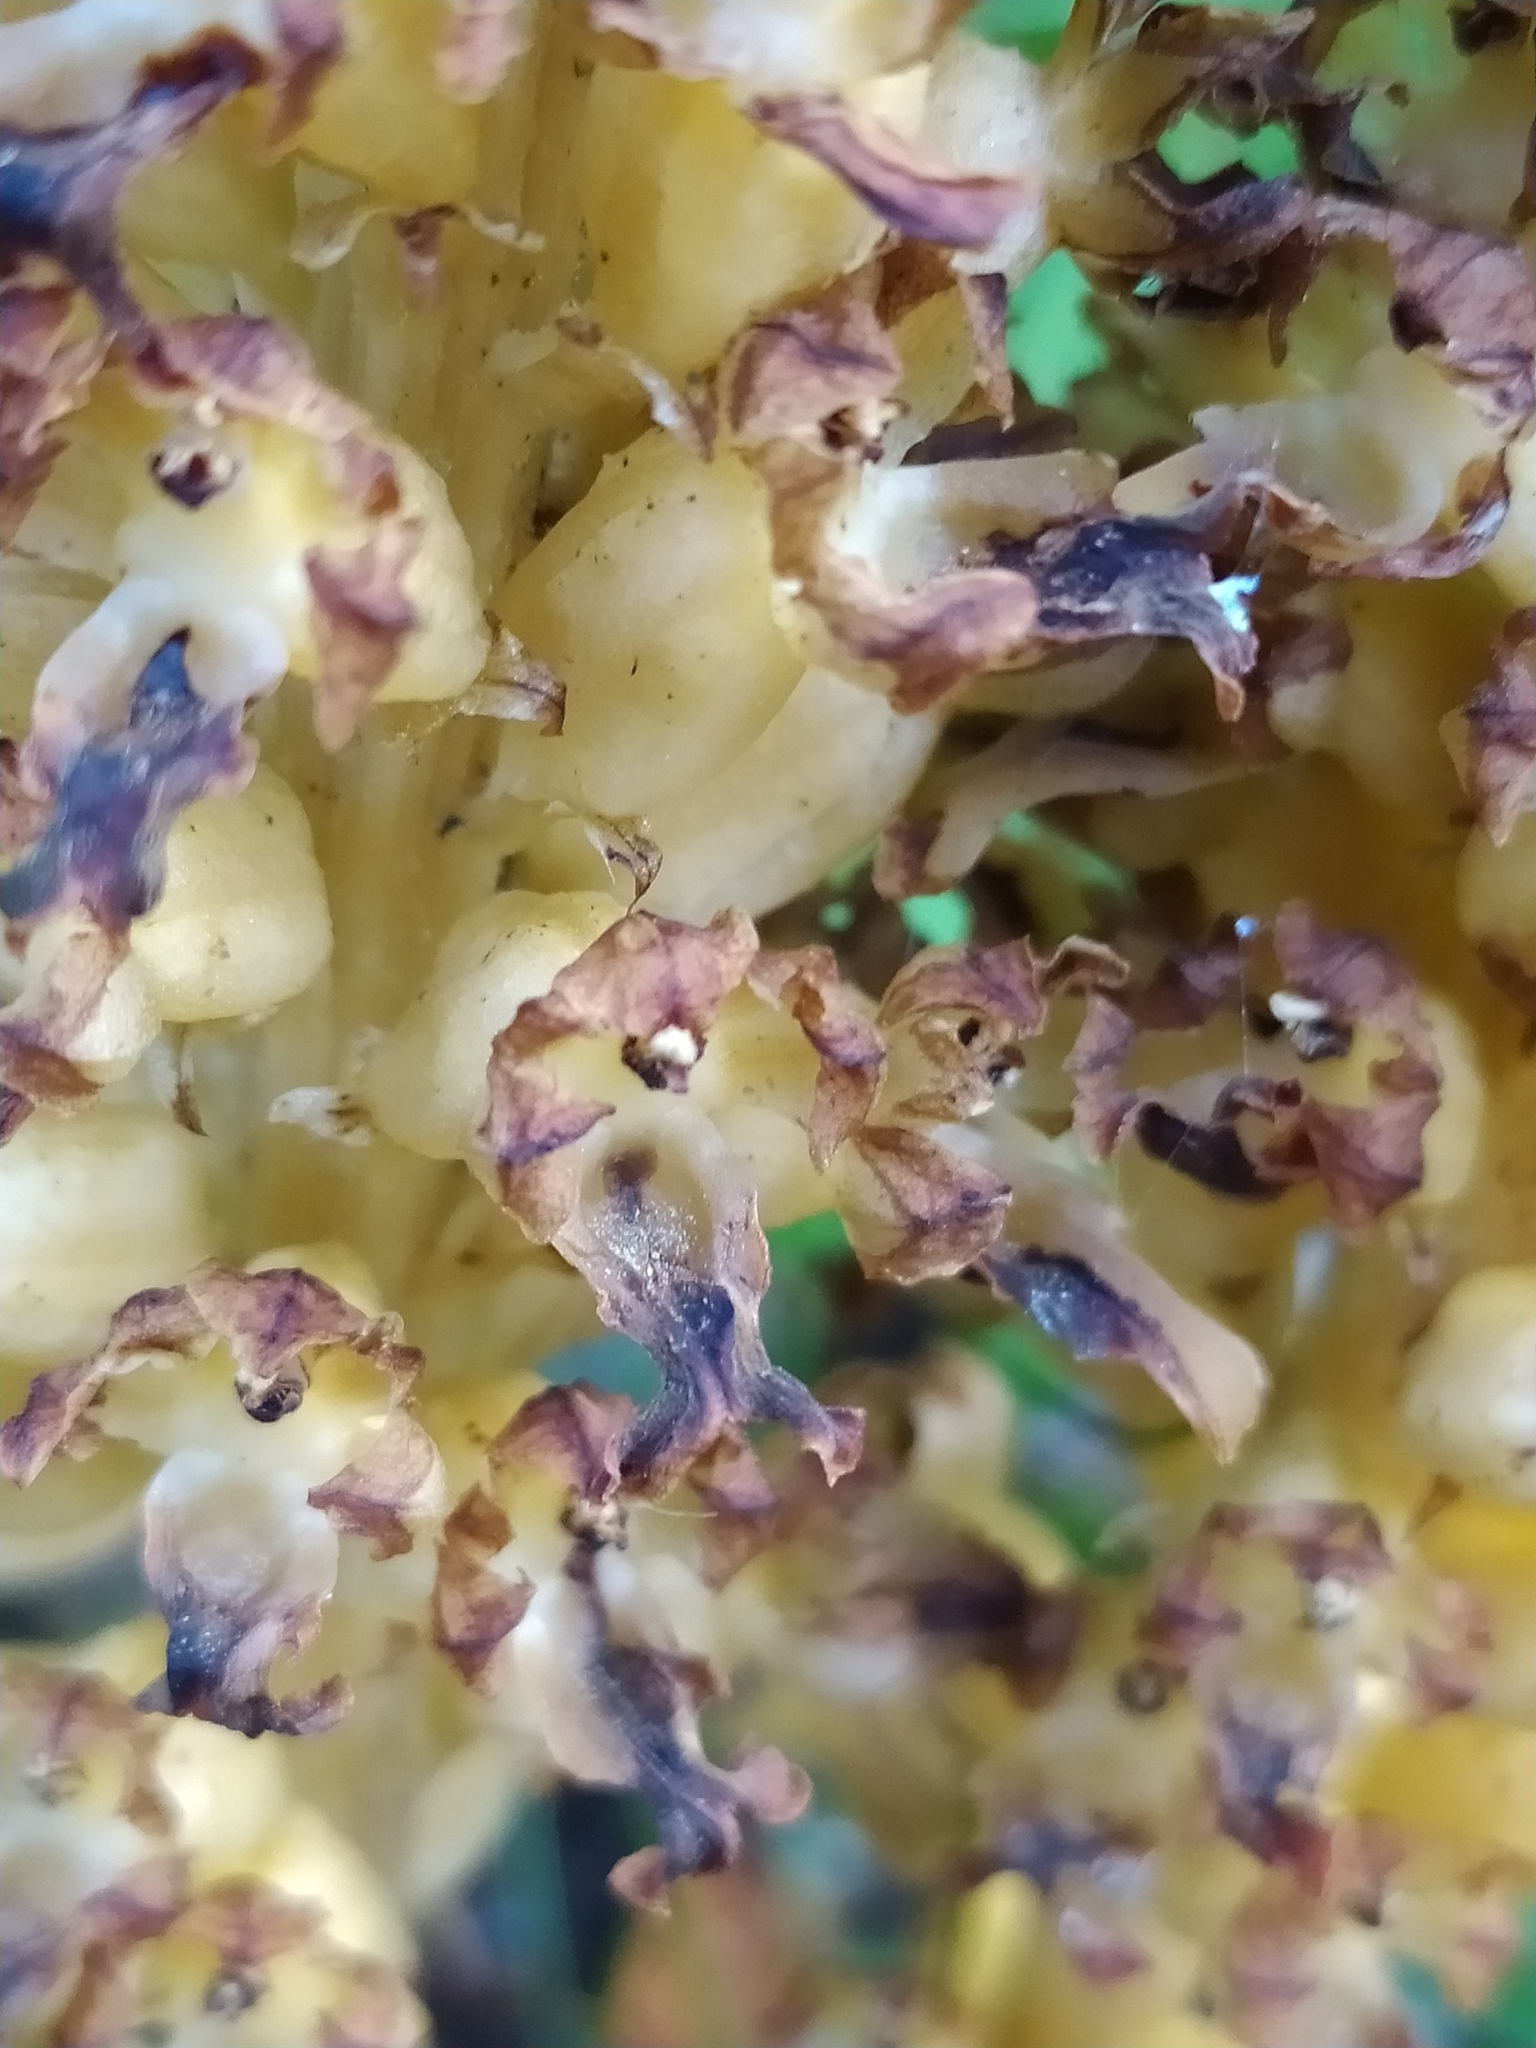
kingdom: Plantae
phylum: Tracheophyta
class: Liliopsida
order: Asparagales
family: Orchidaceae
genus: Neottia
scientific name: Neottia nidus-avis
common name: Bird's-nest orchid
